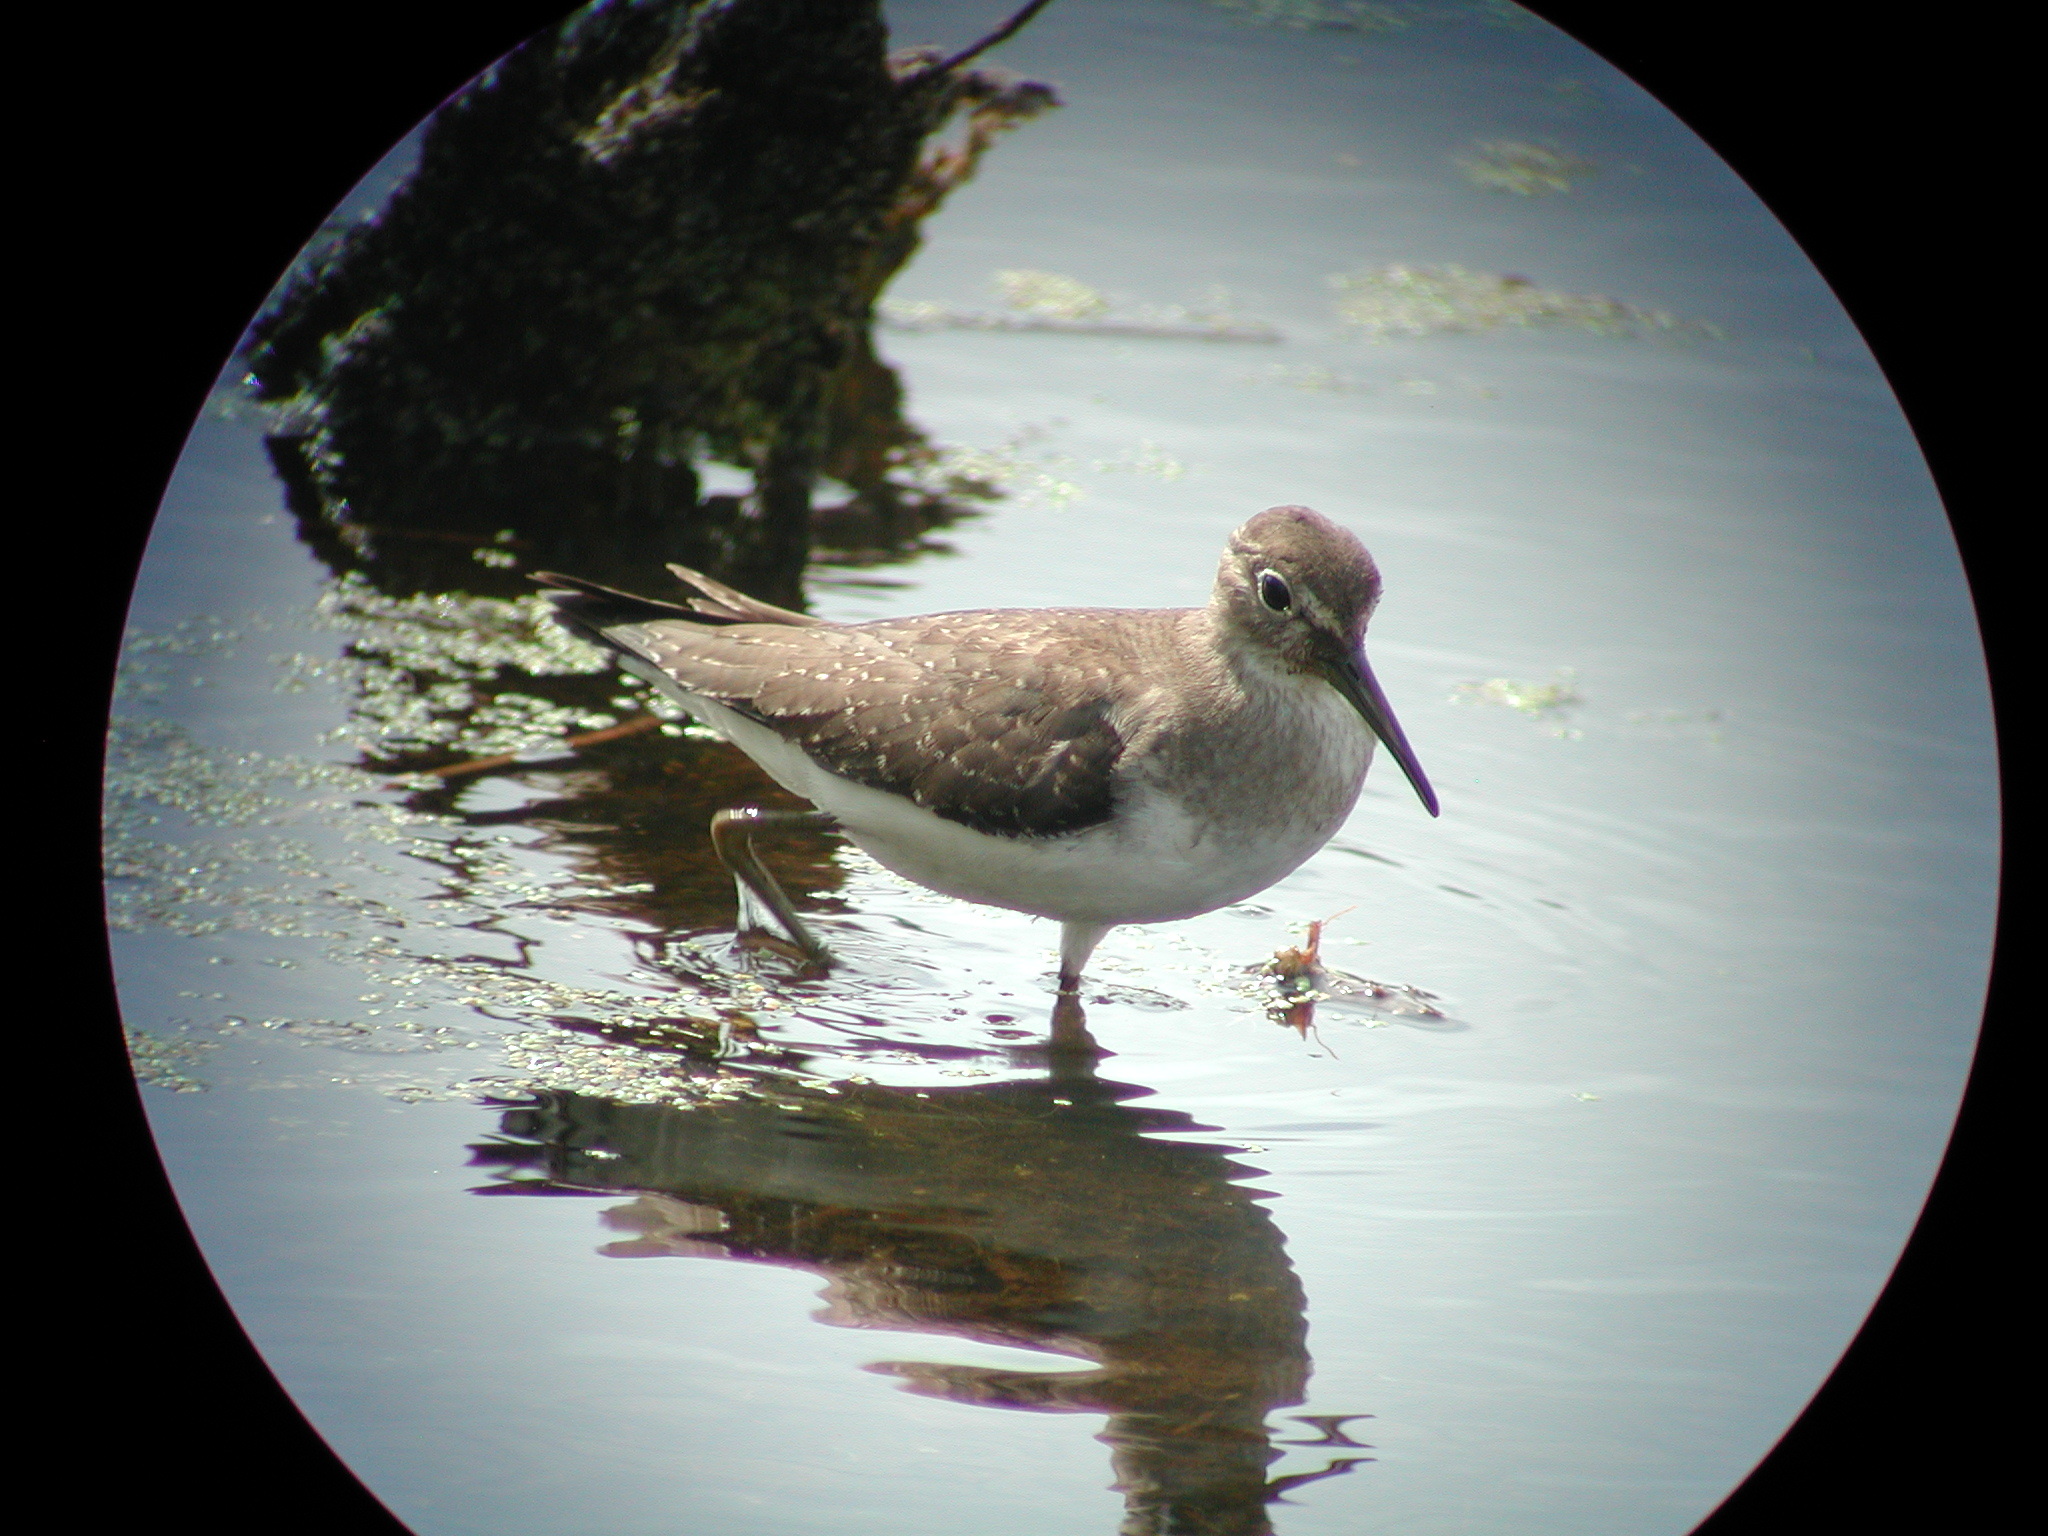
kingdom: Animalia
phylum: Chordata
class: Aves
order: Charadriiformes
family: Scolopacidae
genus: Tringa
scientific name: Tringa solitaria
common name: Solitary sandpiper
